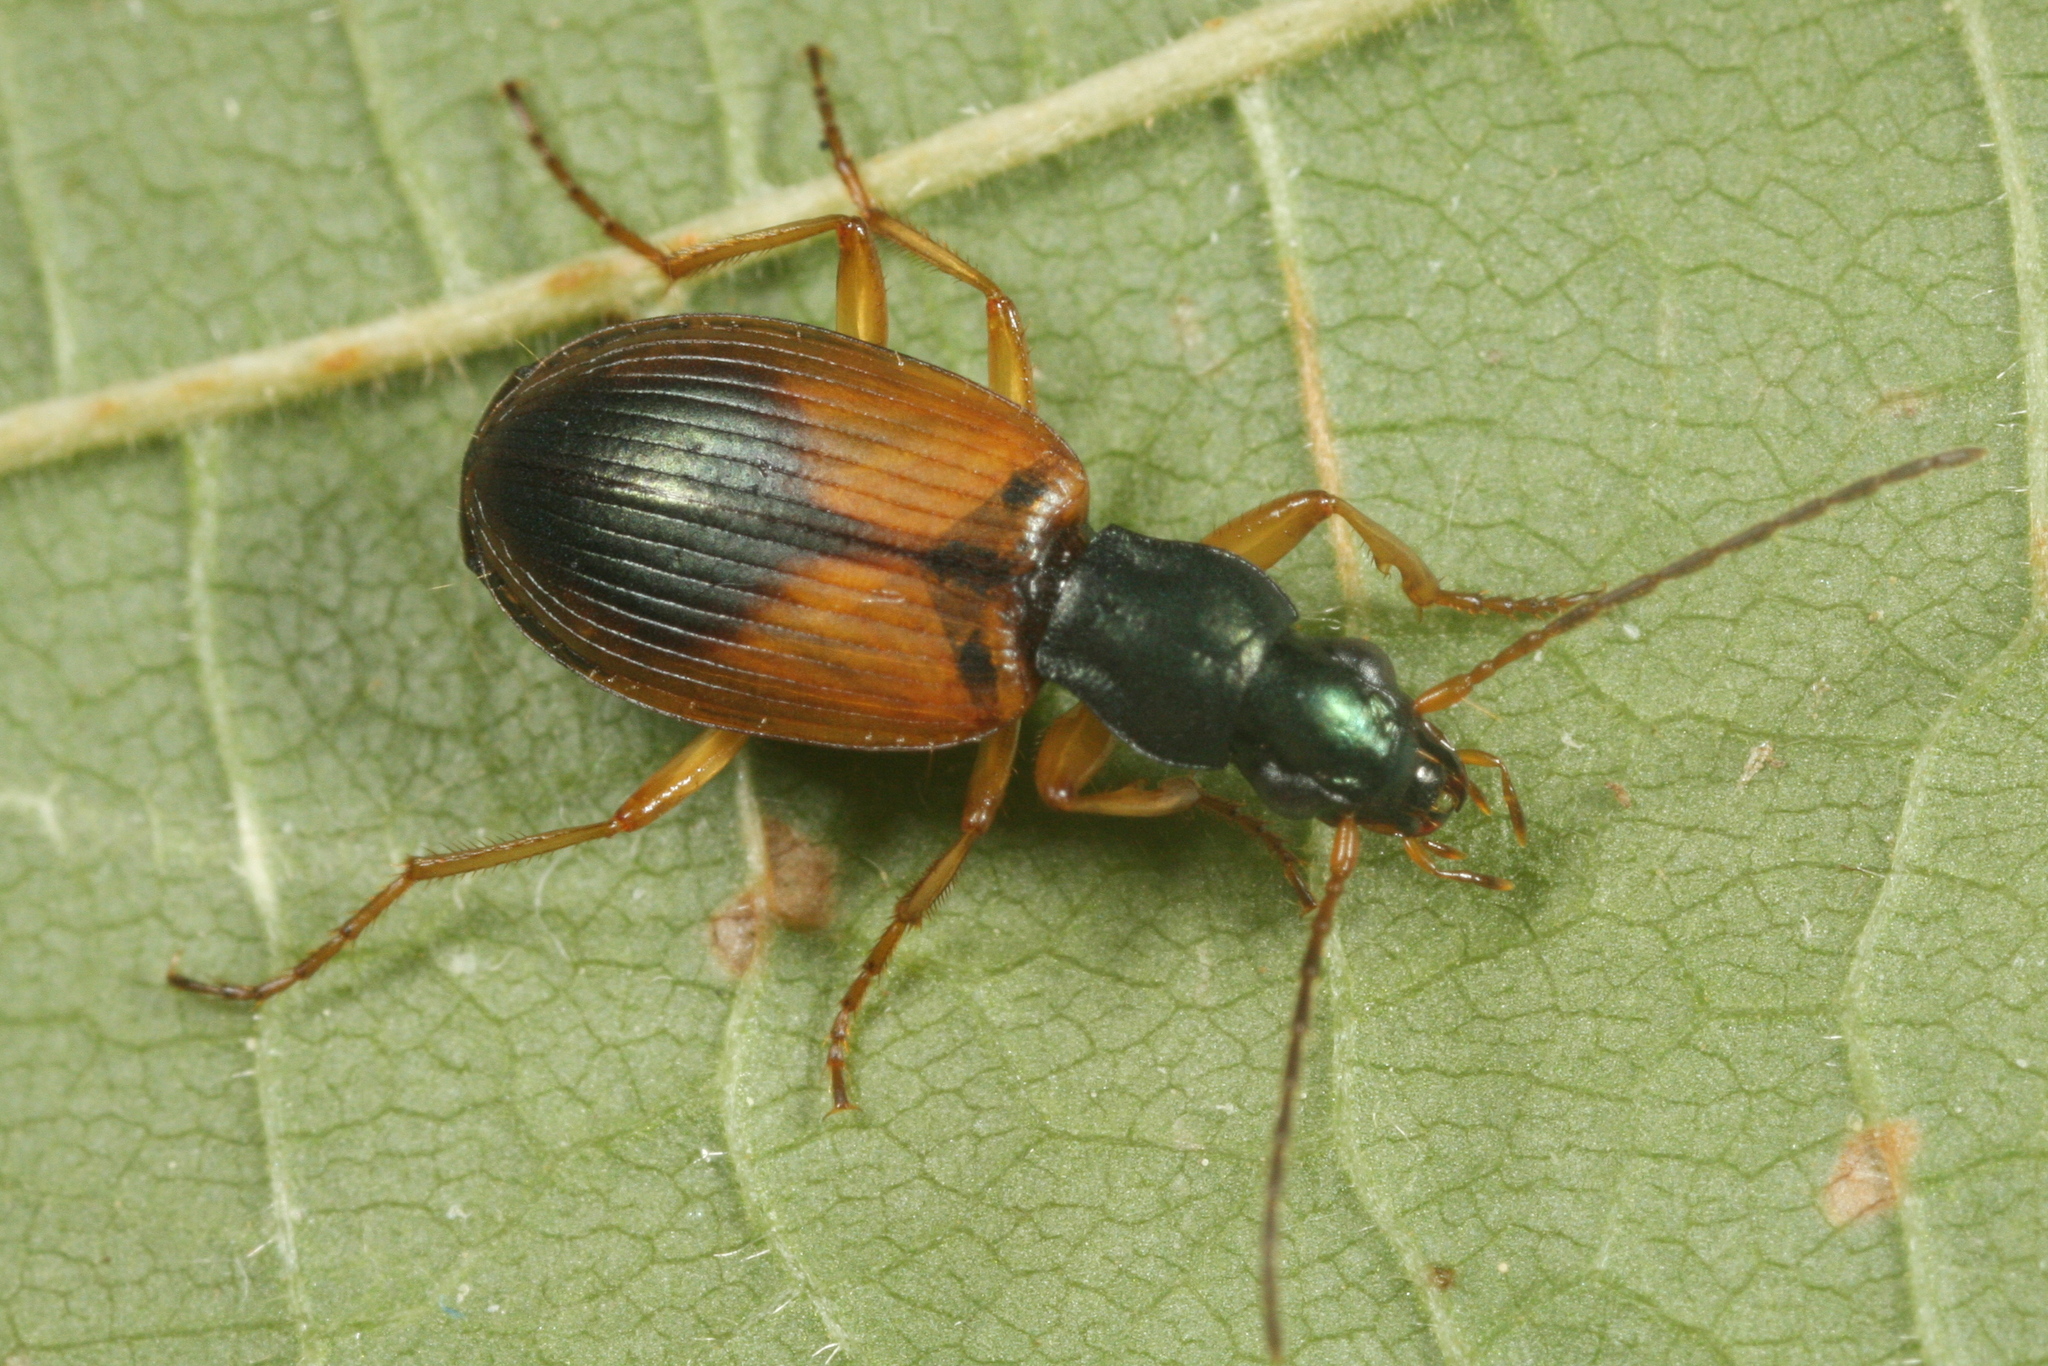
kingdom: Animalia
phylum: Arthropoda
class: Insecta
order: Coleoptera
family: Carabidae
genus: Anchomenus
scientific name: Anchomenus dorsalis
